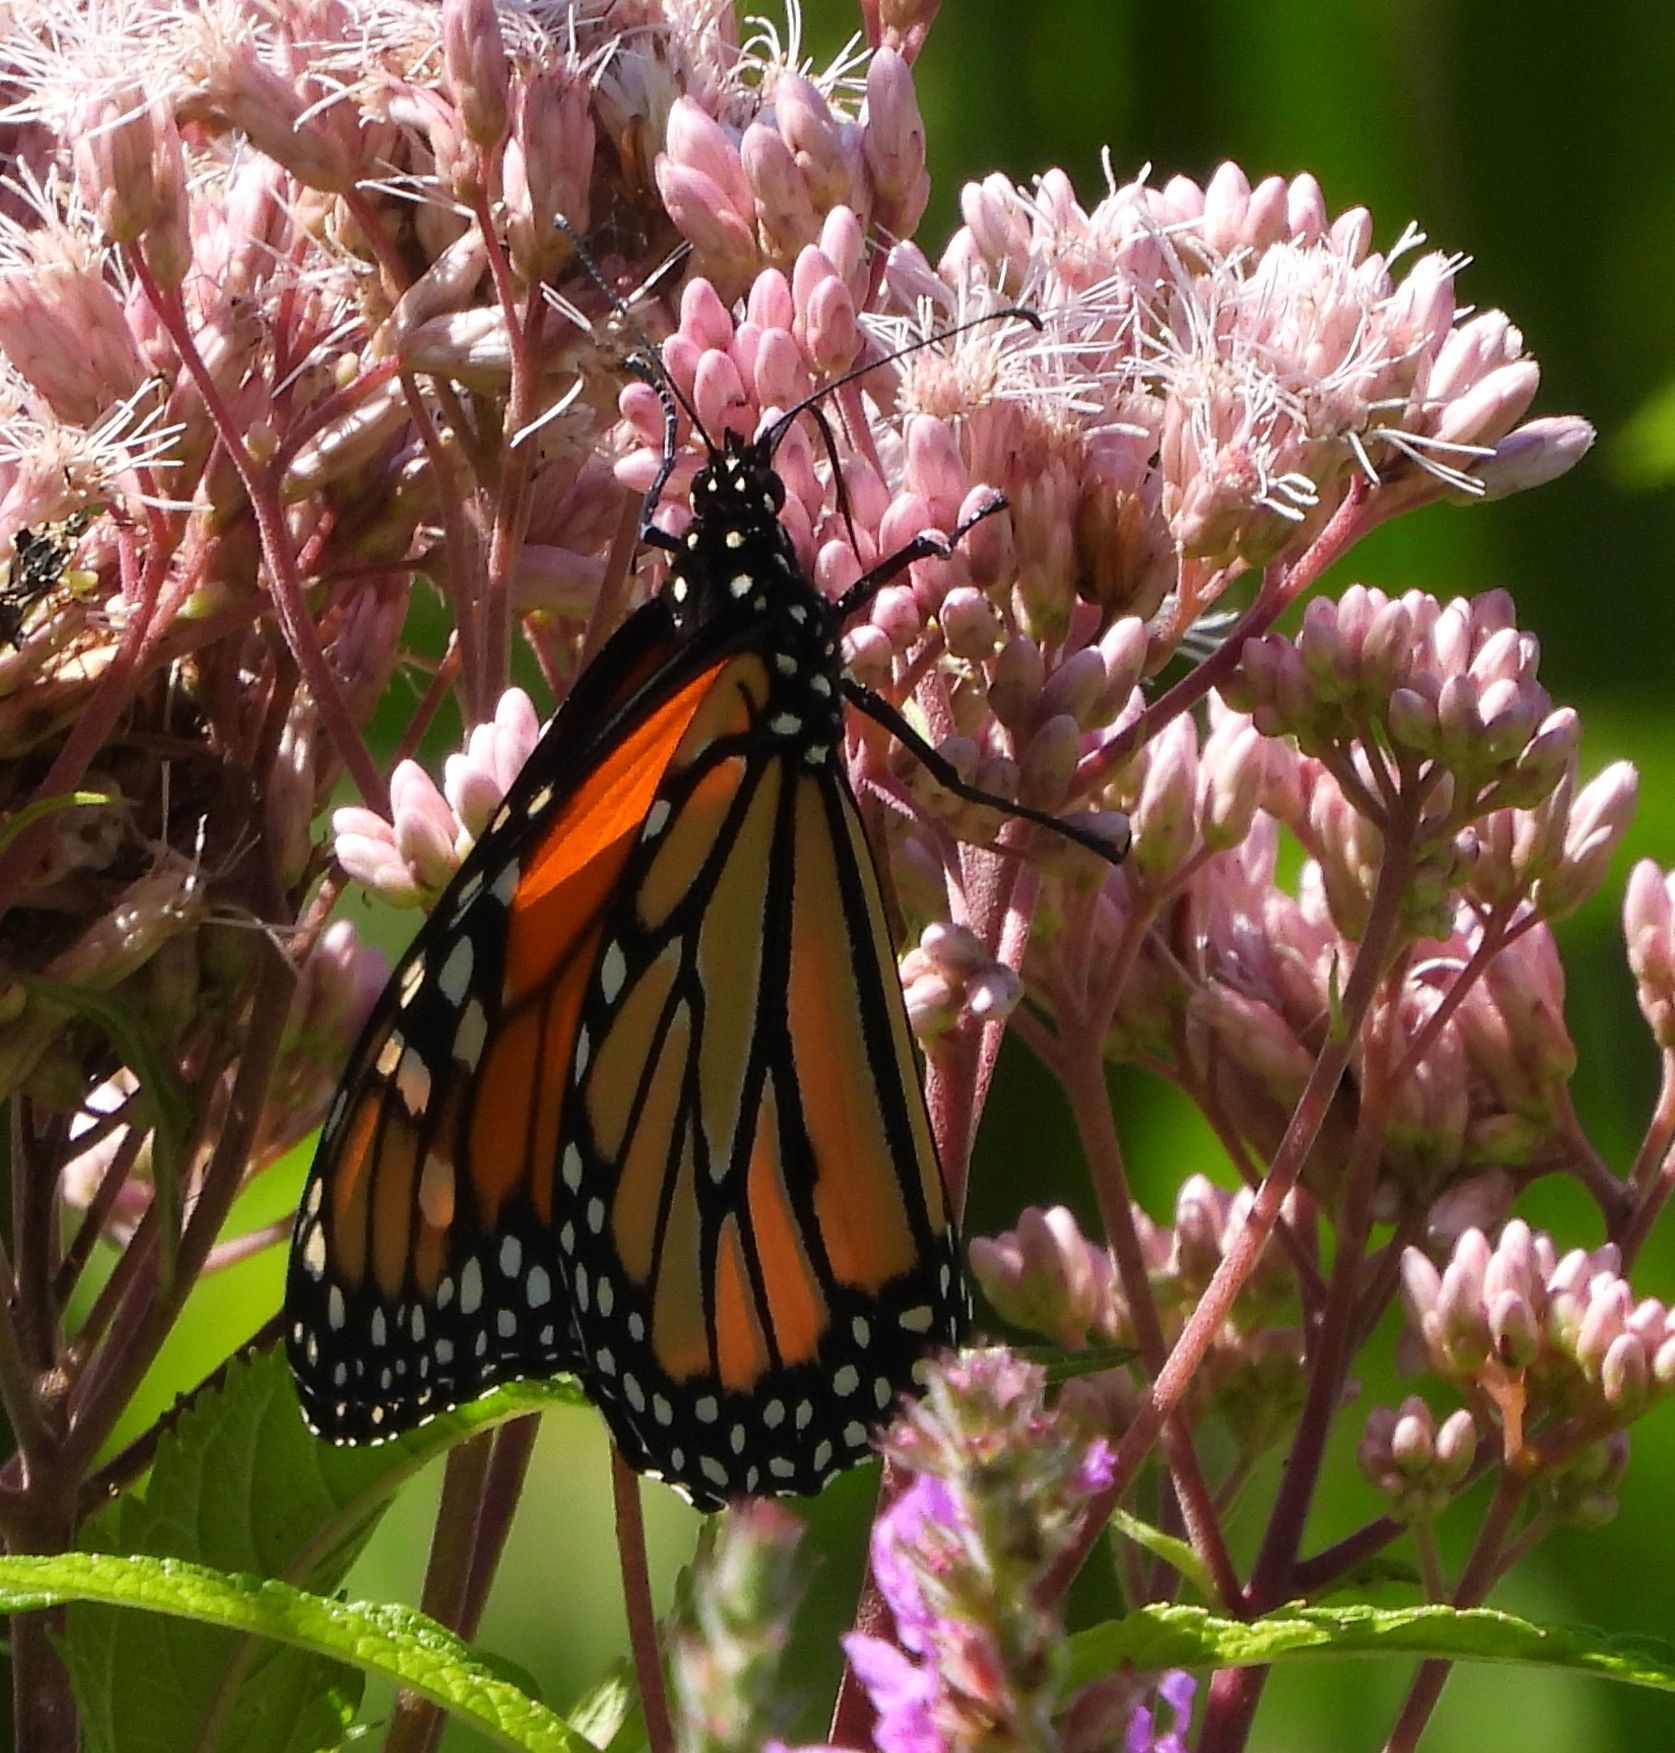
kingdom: Animalia
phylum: Arthropoda
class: Insecta
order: Lepidoptera
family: Nymphalidae
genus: Danaus
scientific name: Danaus plexippus
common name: Monarch
